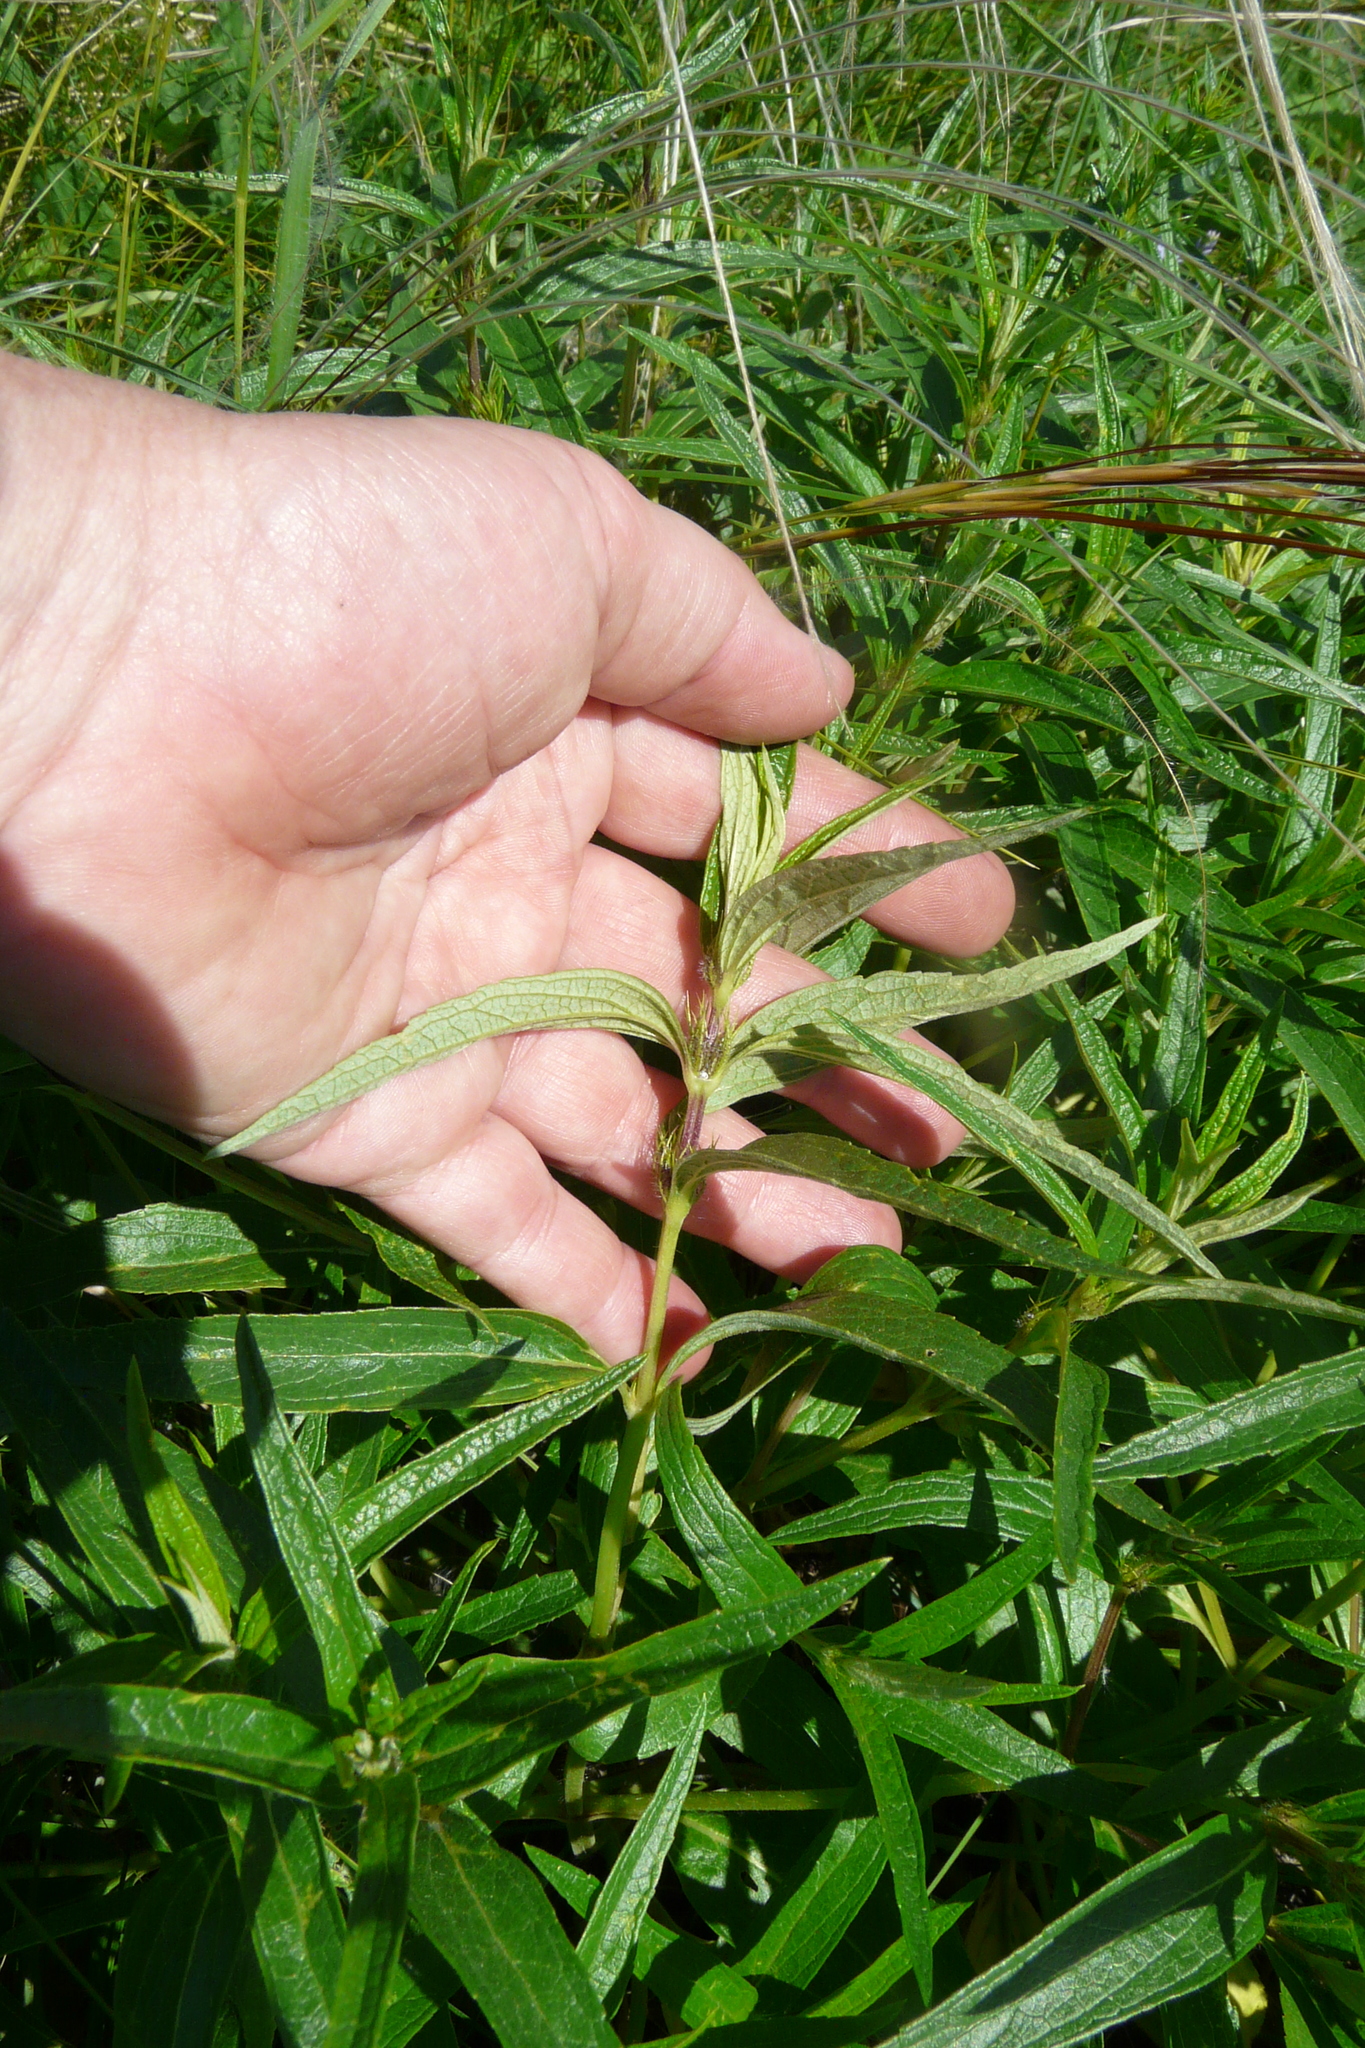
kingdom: Plantae
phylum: Tracheophyta
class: Magnoliopsida
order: Lamiales
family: Lamiaceae
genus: Phlomis
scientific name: Phlomis herba-venti
